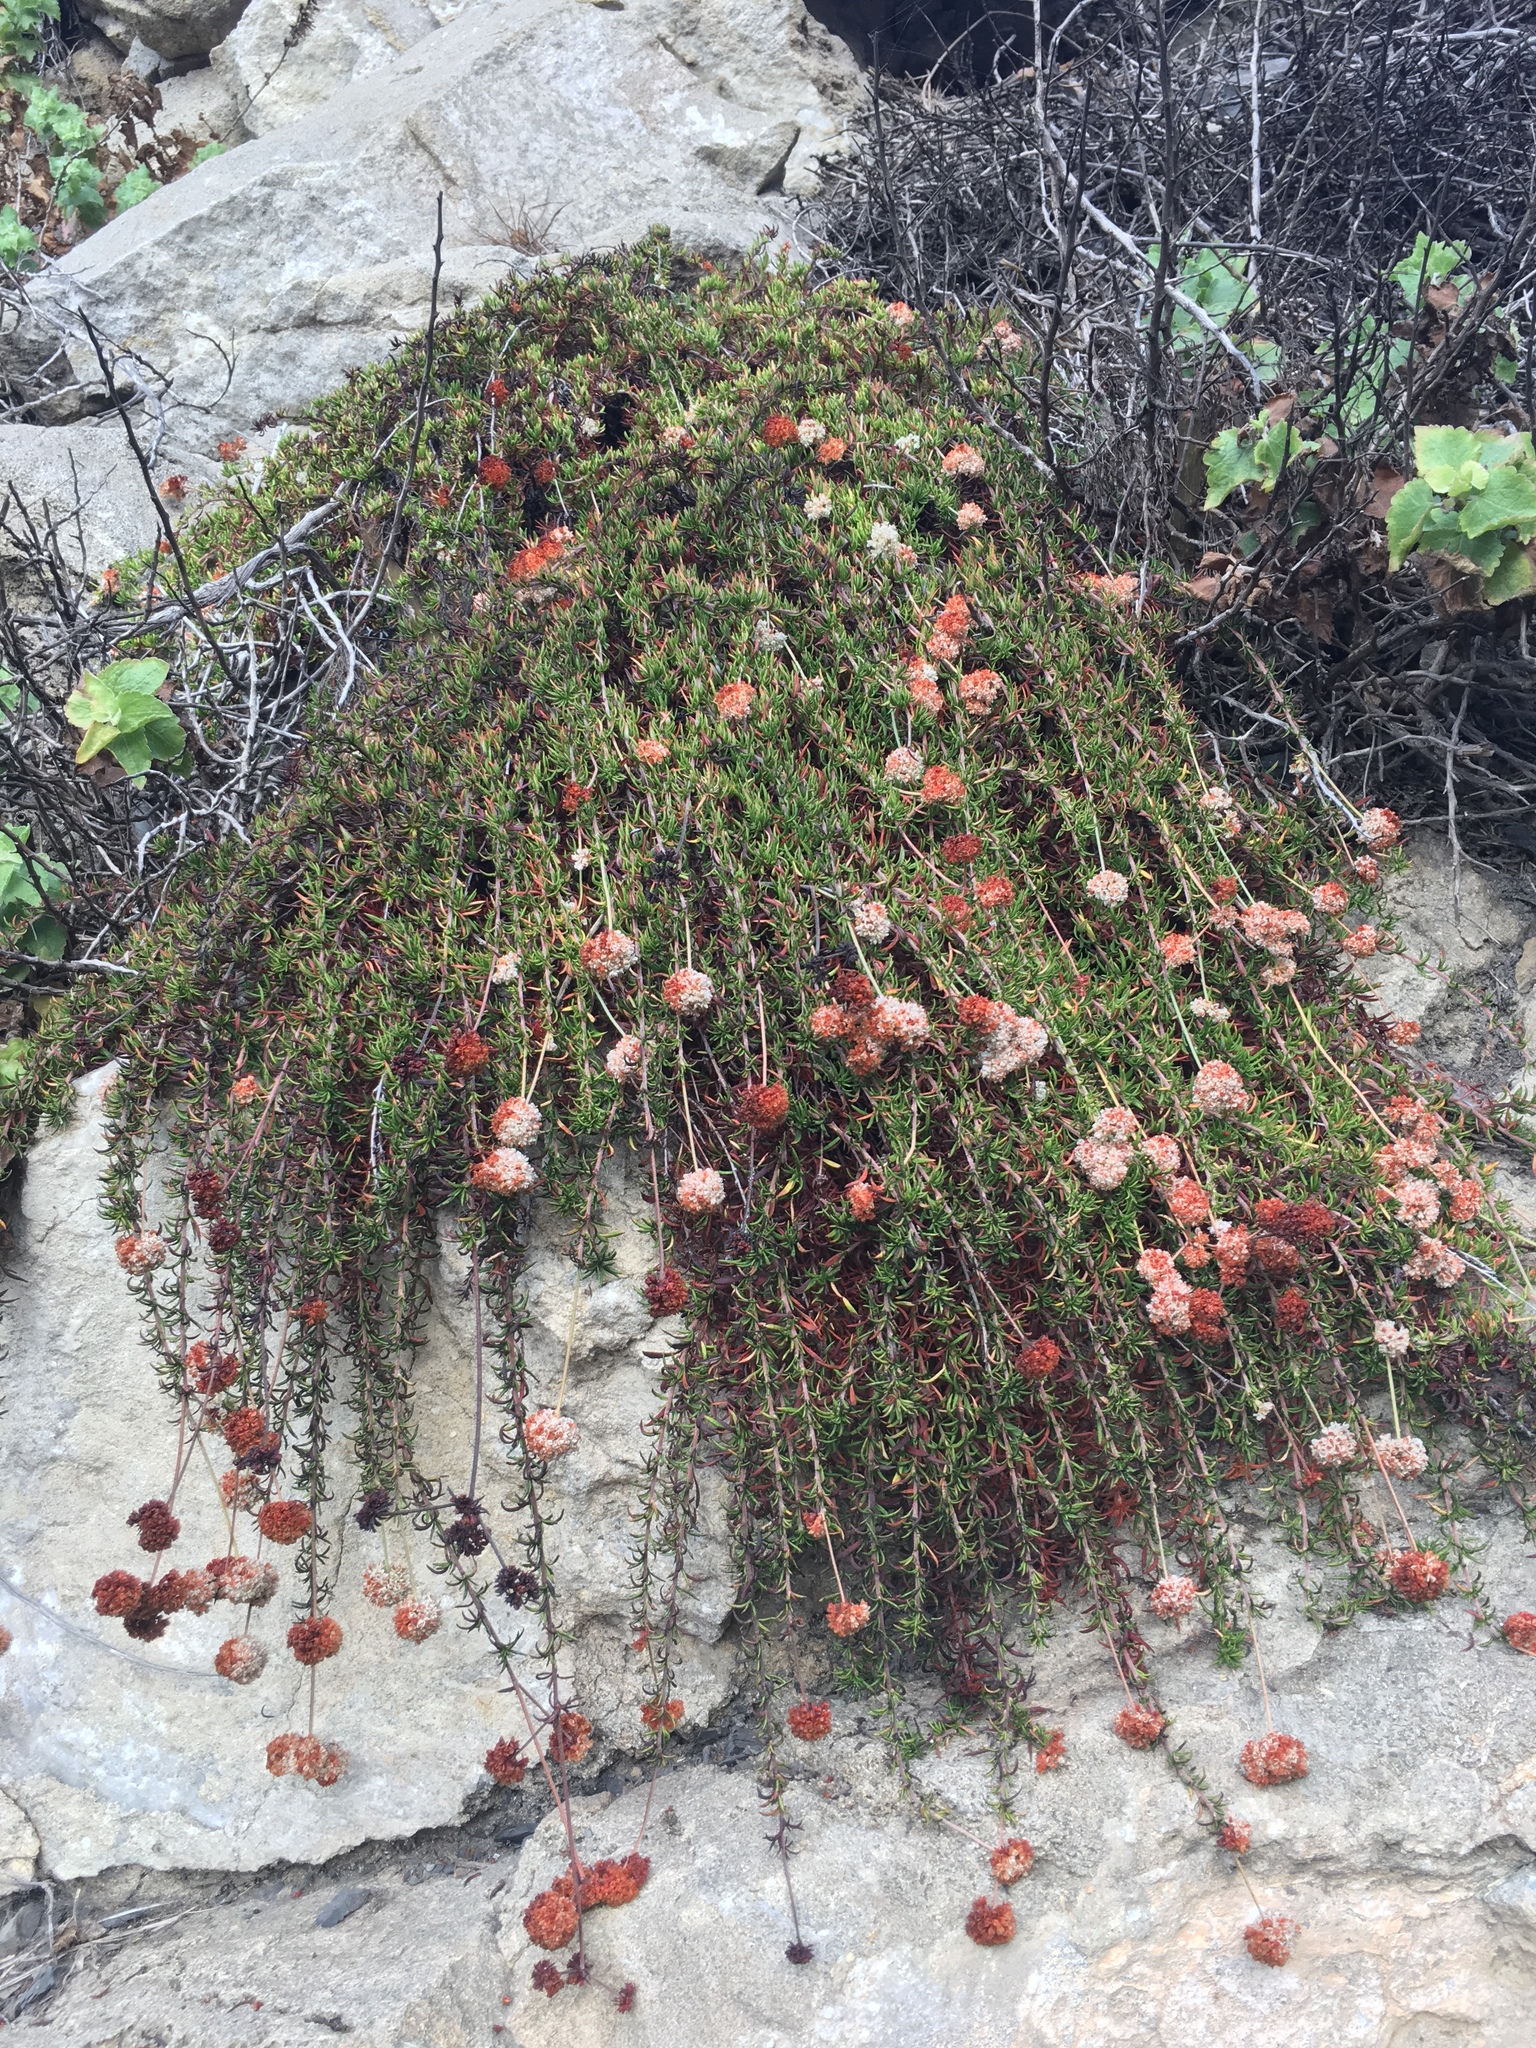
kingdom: Plantae
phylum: Tracheophyta
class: Magnoliopsida
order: Caryophyllales
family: Polygonaceae
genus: Eriogonum
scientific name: Eriogonum fasciculatum
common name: California wild buckwheat
